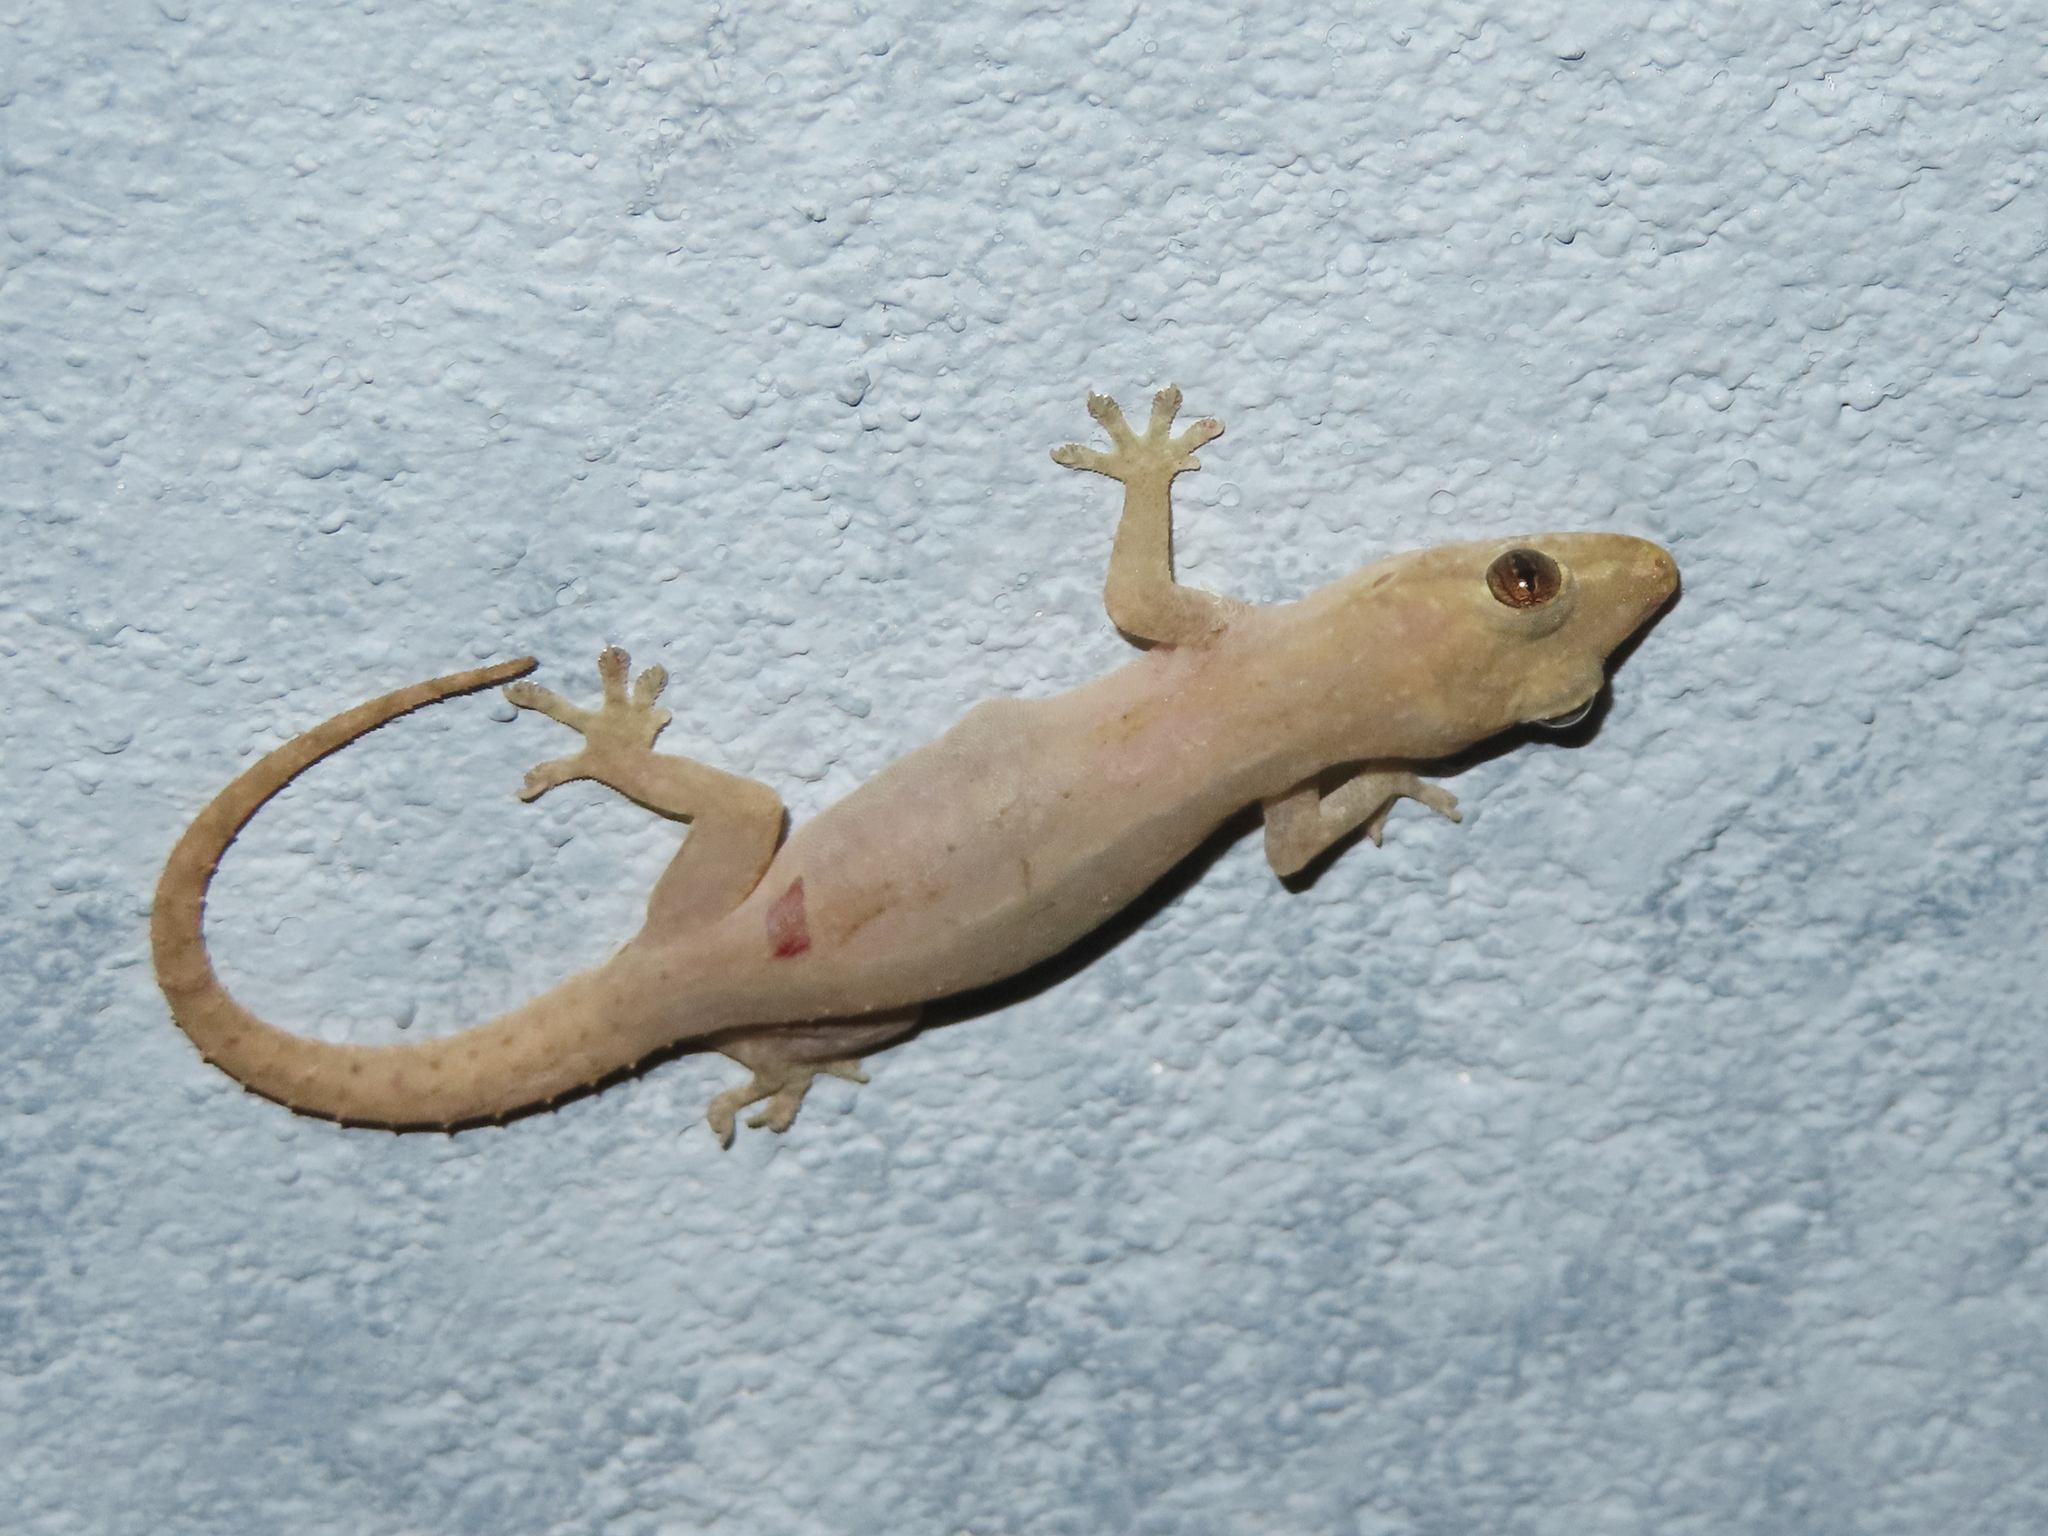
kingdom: Animalia
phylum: Chordata
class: Squamata
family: Gekkonidae
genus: Hemidactylus
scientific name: Hemidactylus frenatus
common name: Common house gecko
